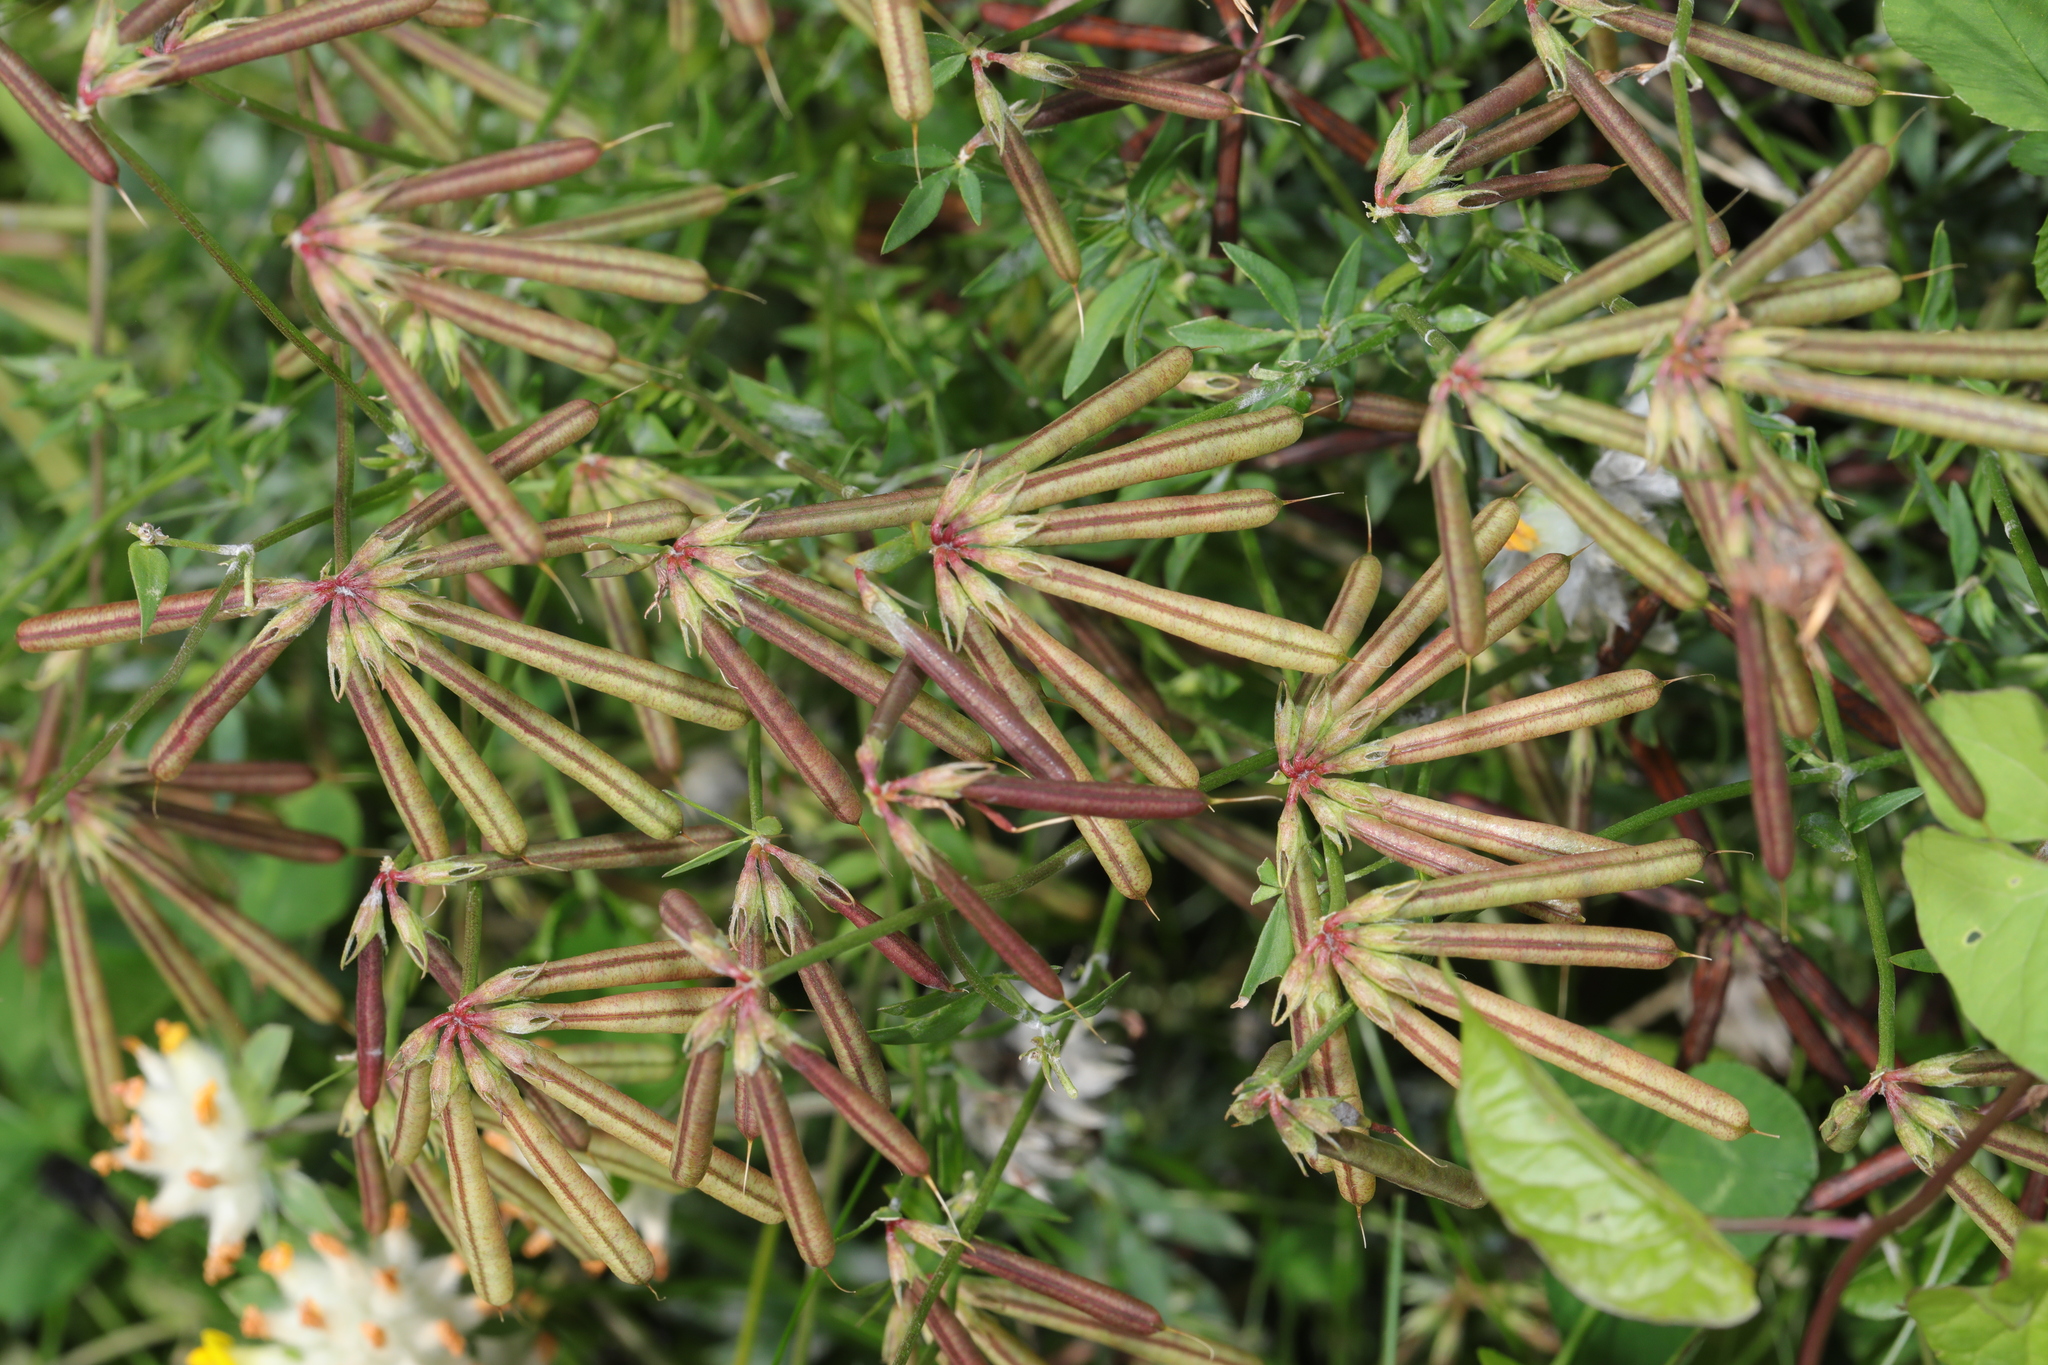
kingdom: Plantae
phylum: Tracheophyta
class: Magnoliopsida
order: Fabales
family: Fabaceae
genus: Lotus
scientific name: Lotus corniculatus
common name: Common bird's-foot-trefoil
